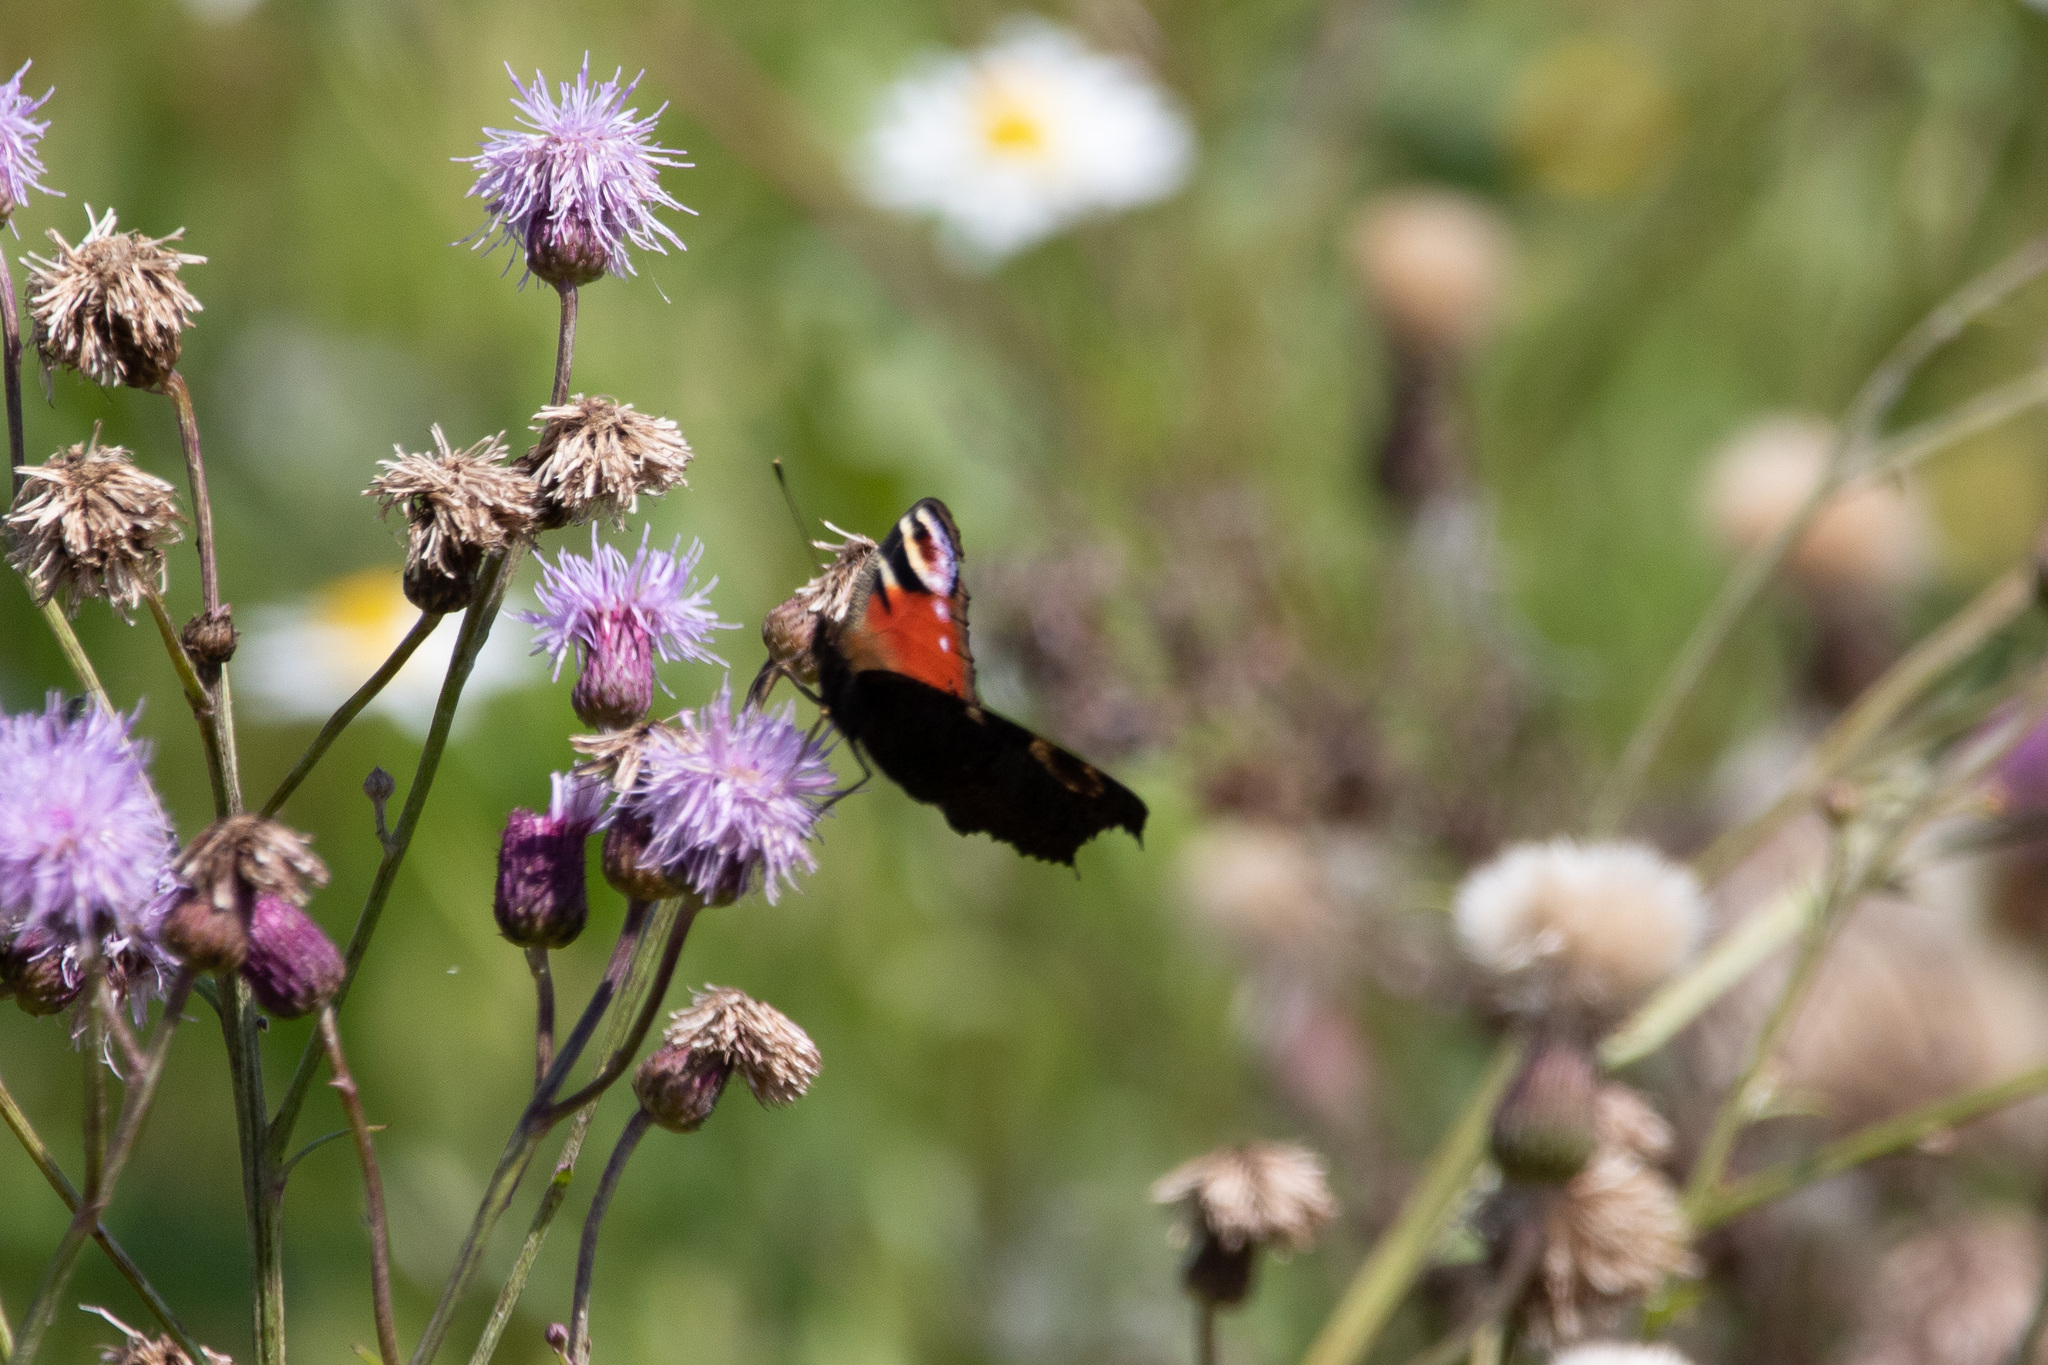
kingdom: Animalia
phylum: Arthropoda
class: Insecta
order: Lepidoptera
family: Nymphalidae
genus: Aglais
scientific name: Aglais io
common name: Peacock
